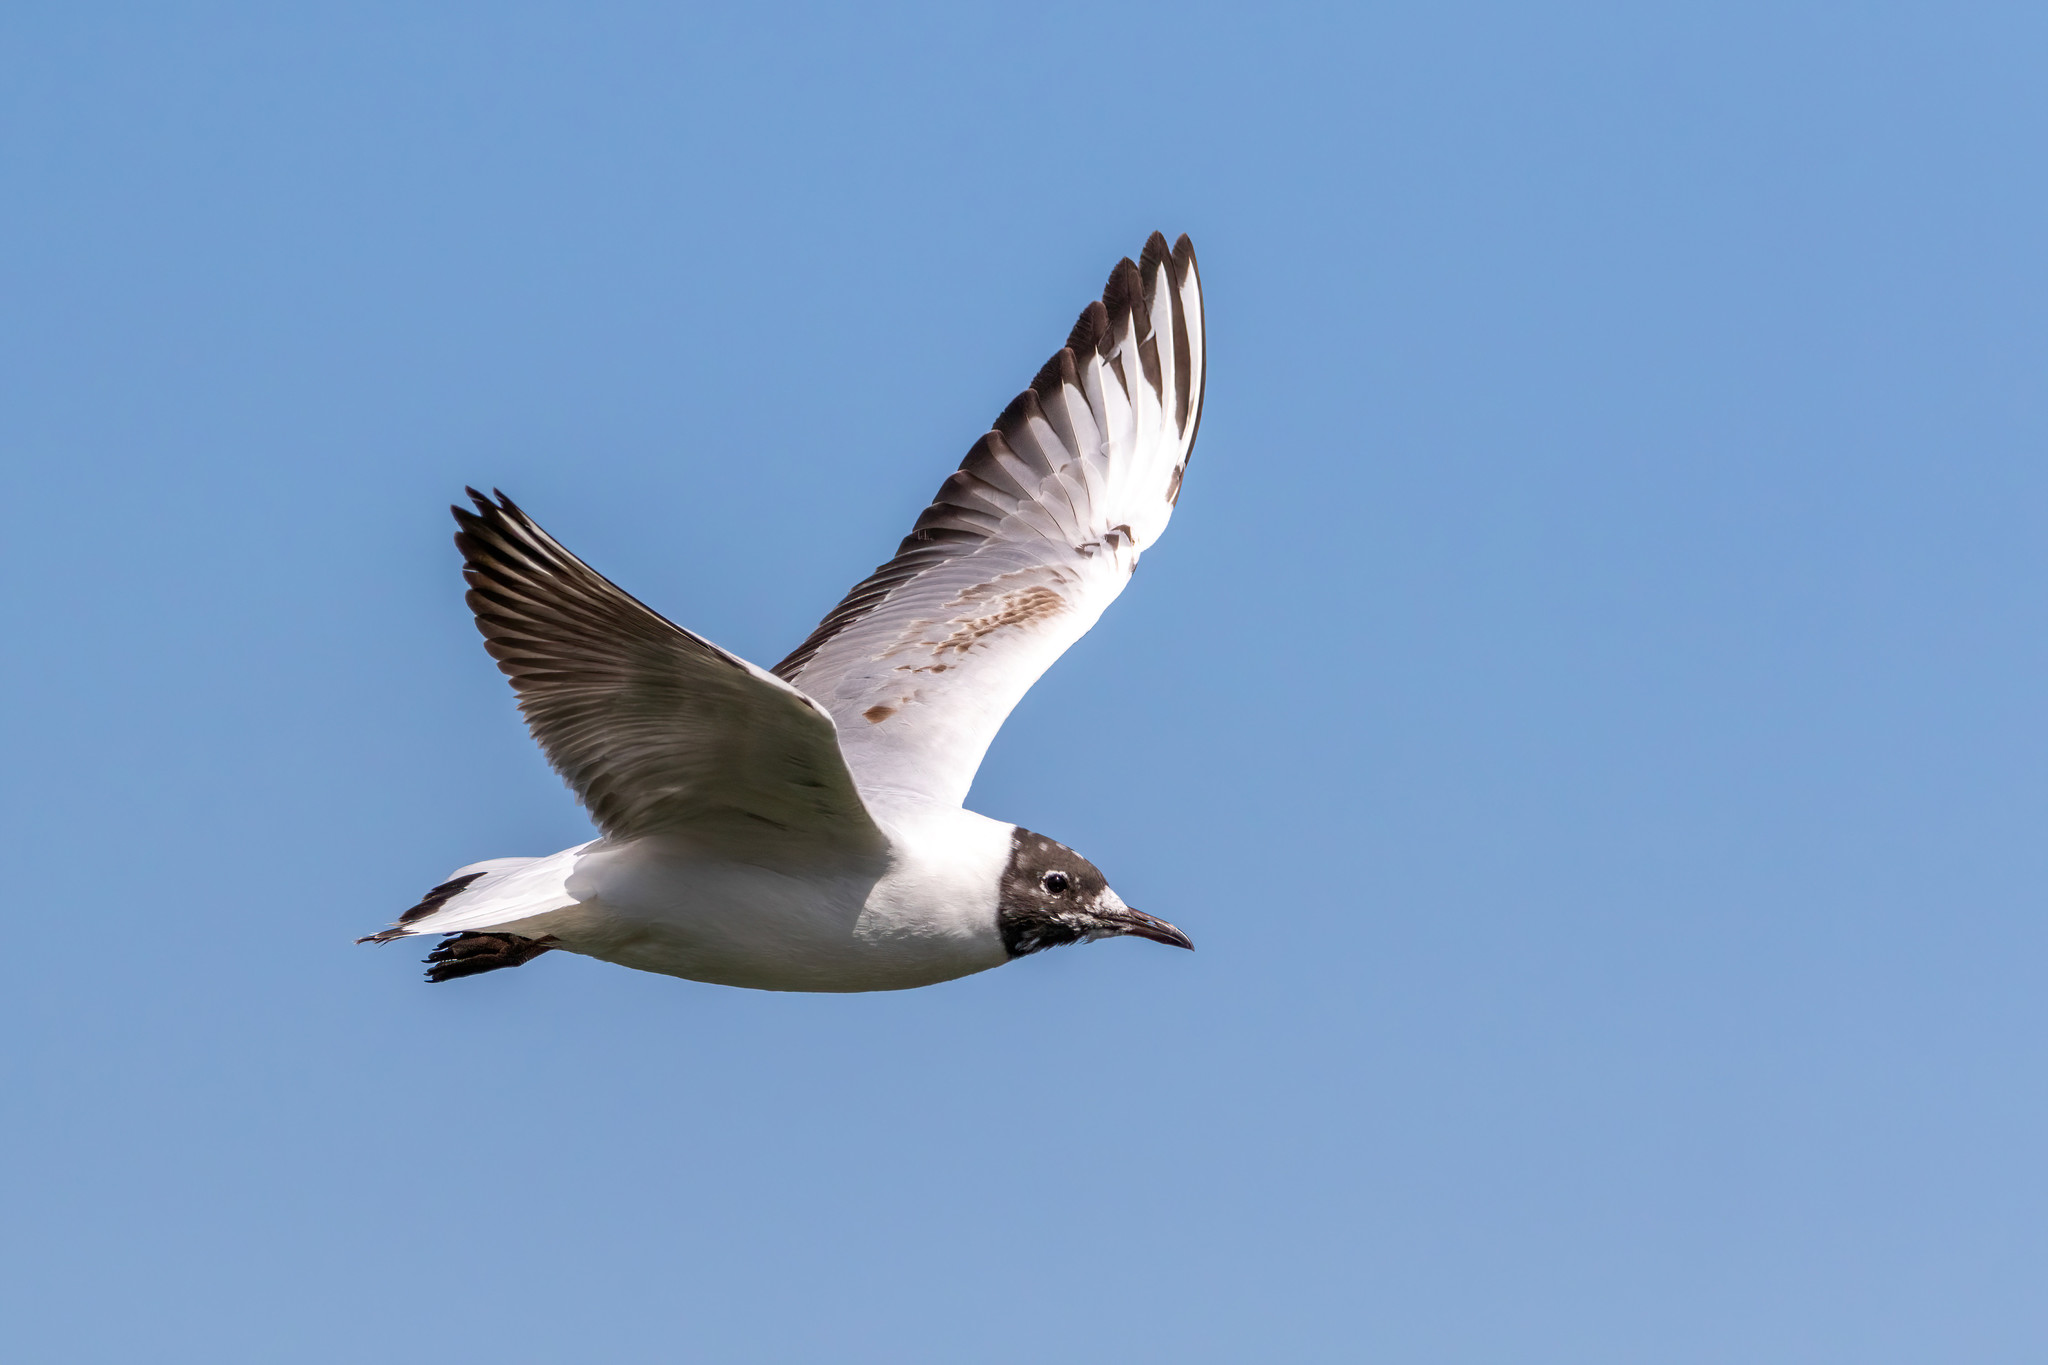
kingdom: Animalia
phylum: Chordata
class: Aves
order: Charadriiformes
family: Laridae
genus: Chroicocephalus
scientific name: Chroicocephalus ridibundus
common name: Black-headed gull
